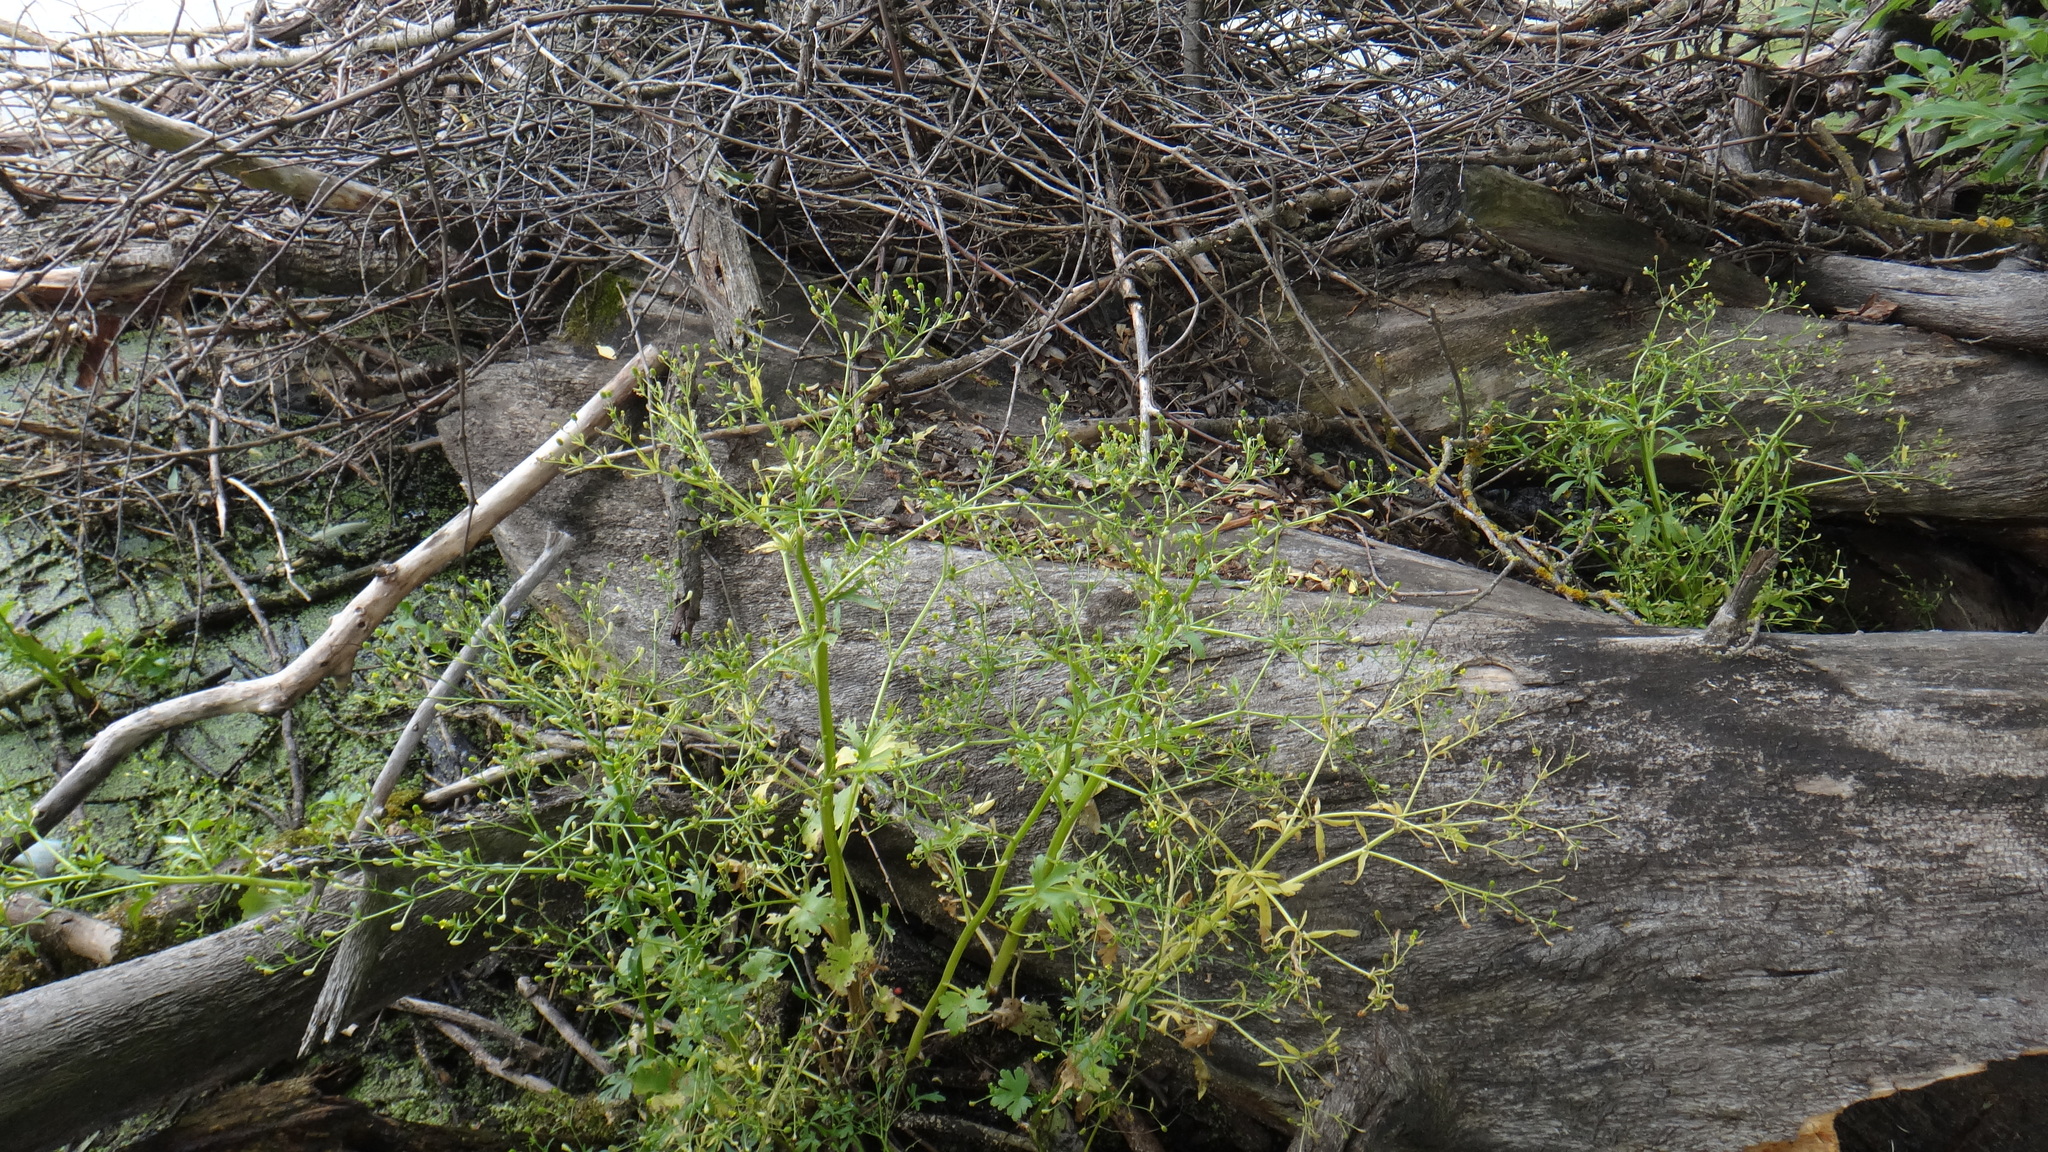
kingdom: Plantae
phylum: Tracheophyta
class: Magnoliopsida
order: Ranunculales
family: Ranunculaceae
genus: Ranunculus
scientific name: Ranunculus sceleratus
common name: Celery-leaved buttercup
